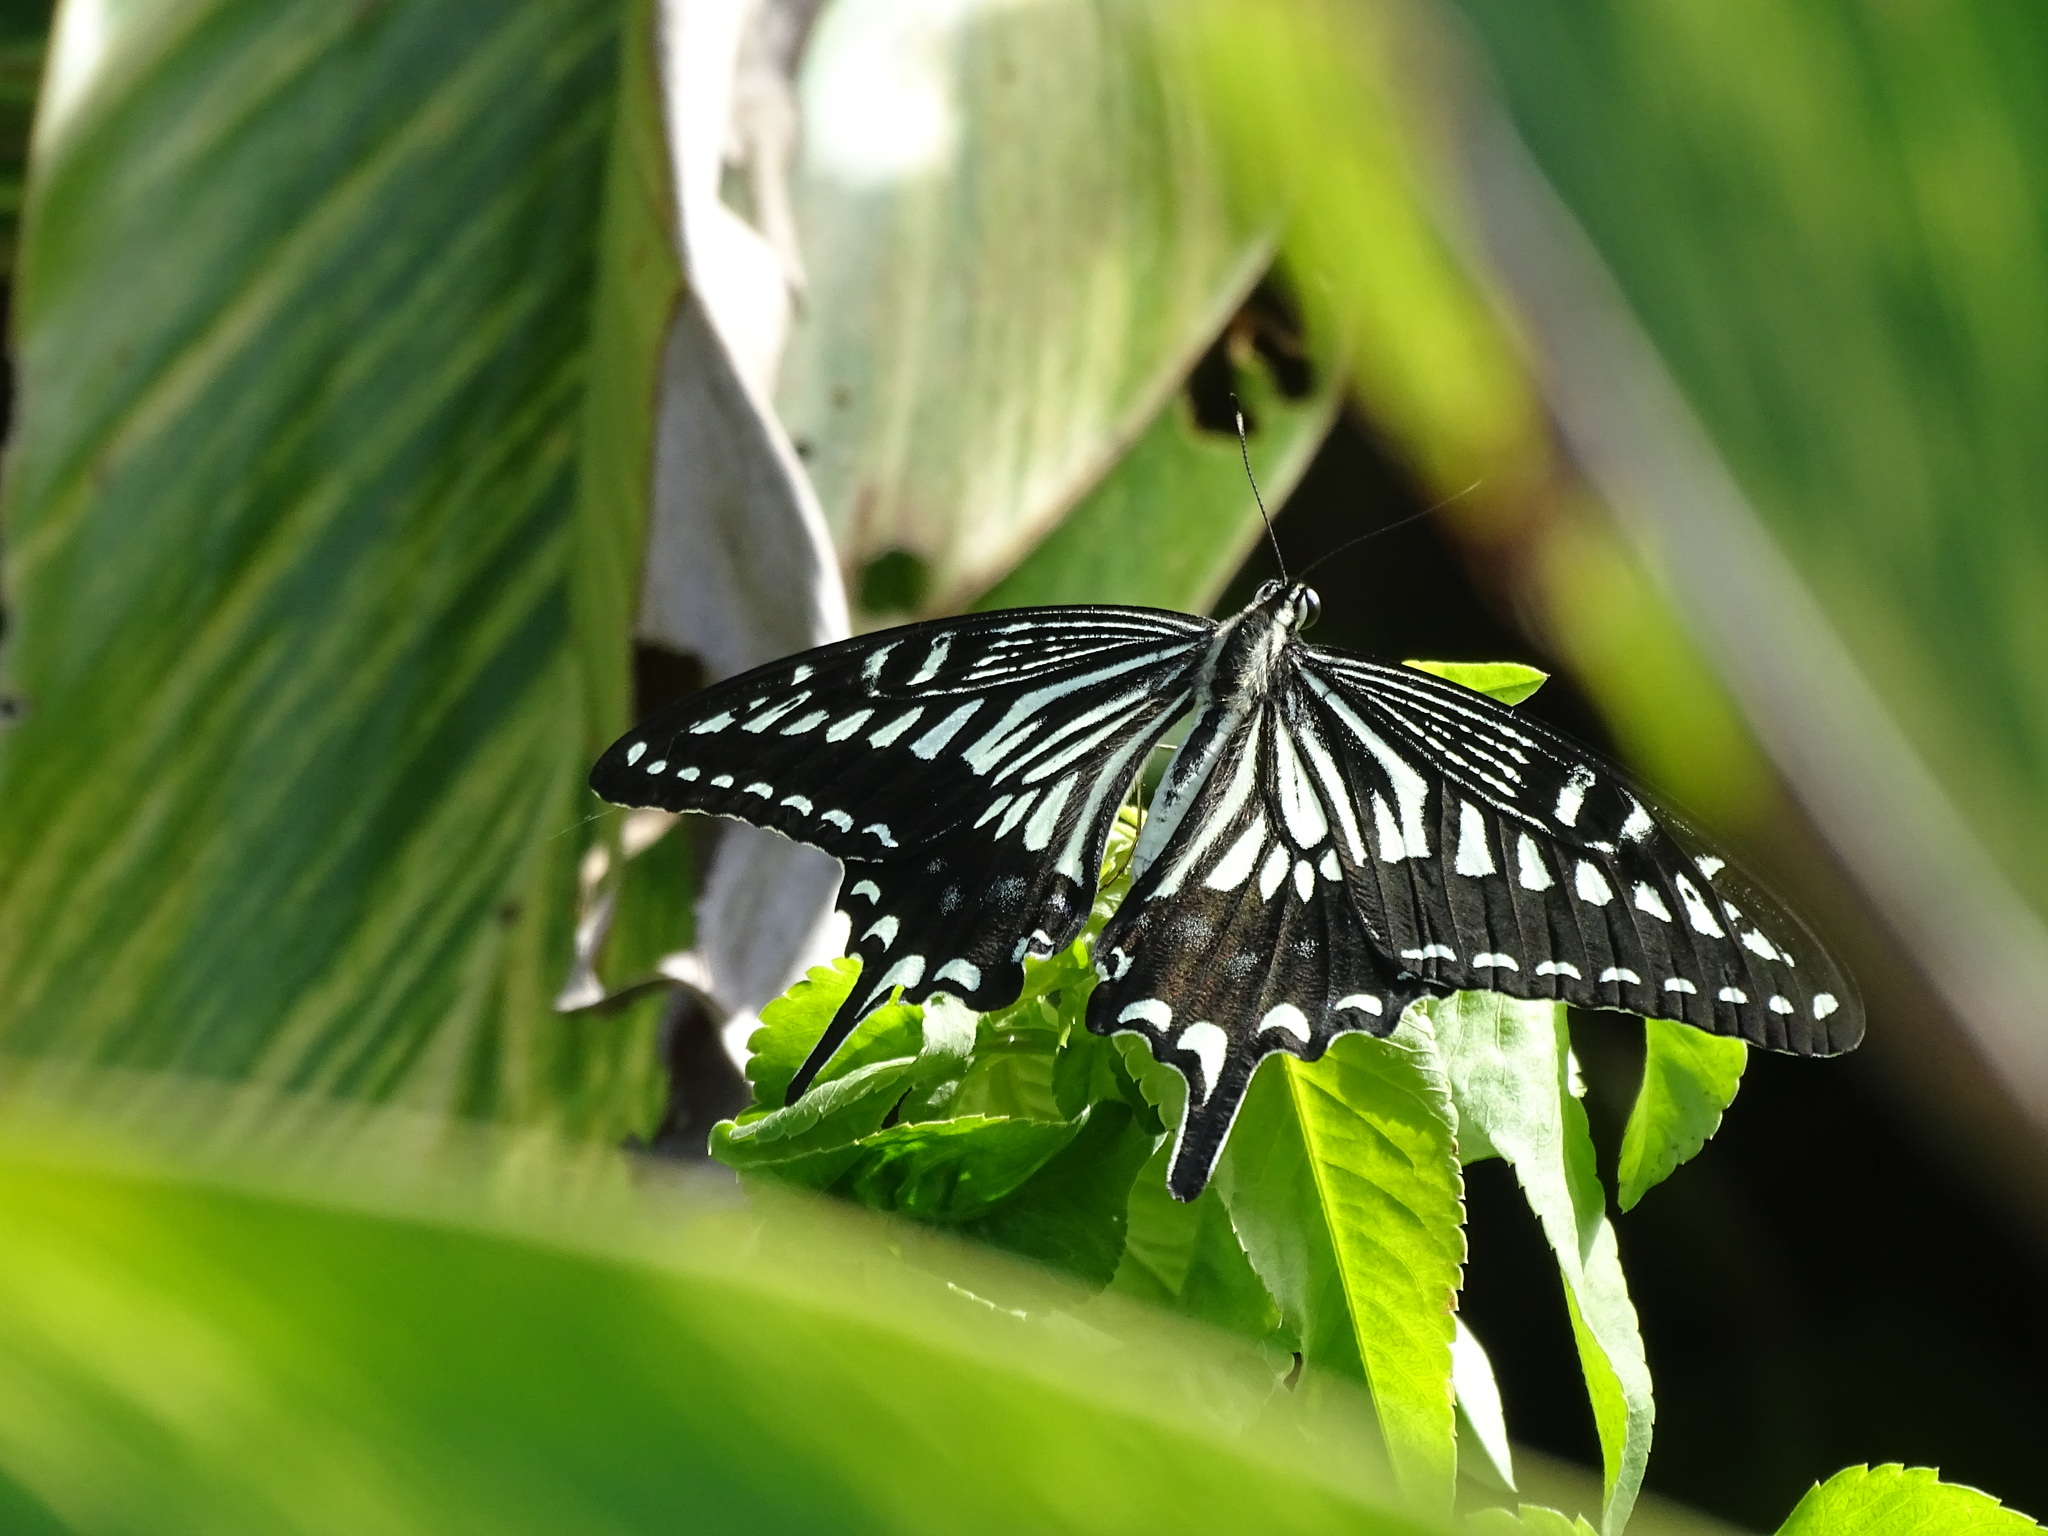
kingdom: Animalia
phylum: Arthropoda
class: Insecta
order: Lepidoptera
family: Papilionidae
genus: Papilio
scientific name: Papilio xuthus
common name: Asian swallowtail
